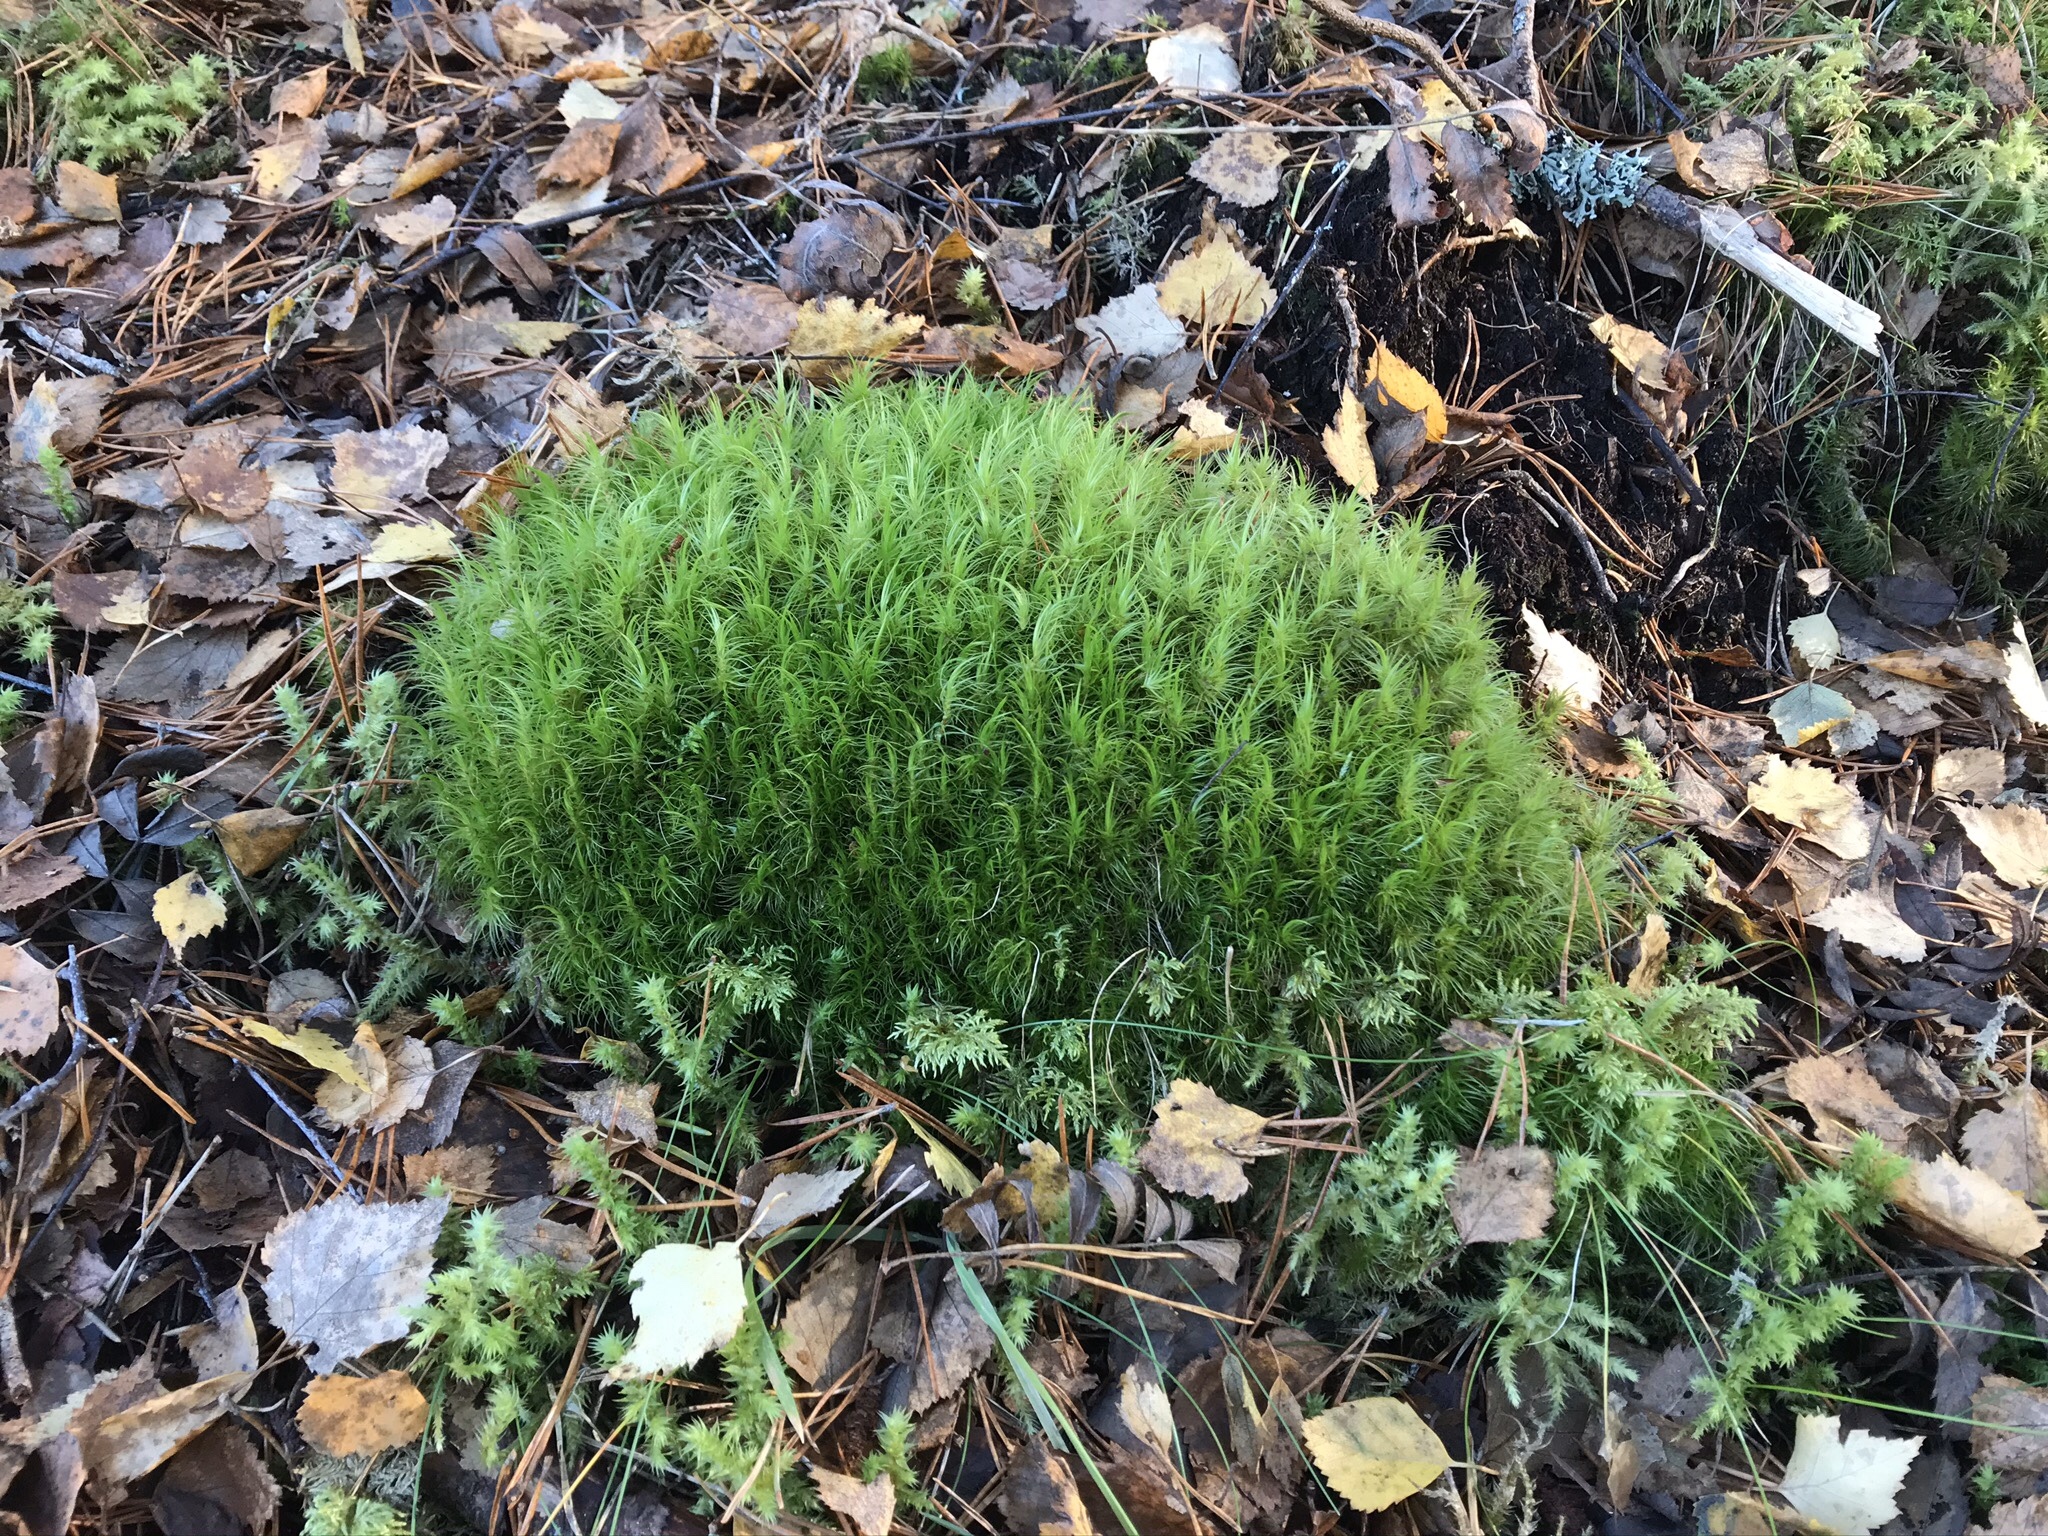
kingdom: Plantae
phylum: Bryophyta
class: Bryopsida
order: Dicranales
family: Dicranaceae
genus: Dicranum
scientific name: Dicranum majus
